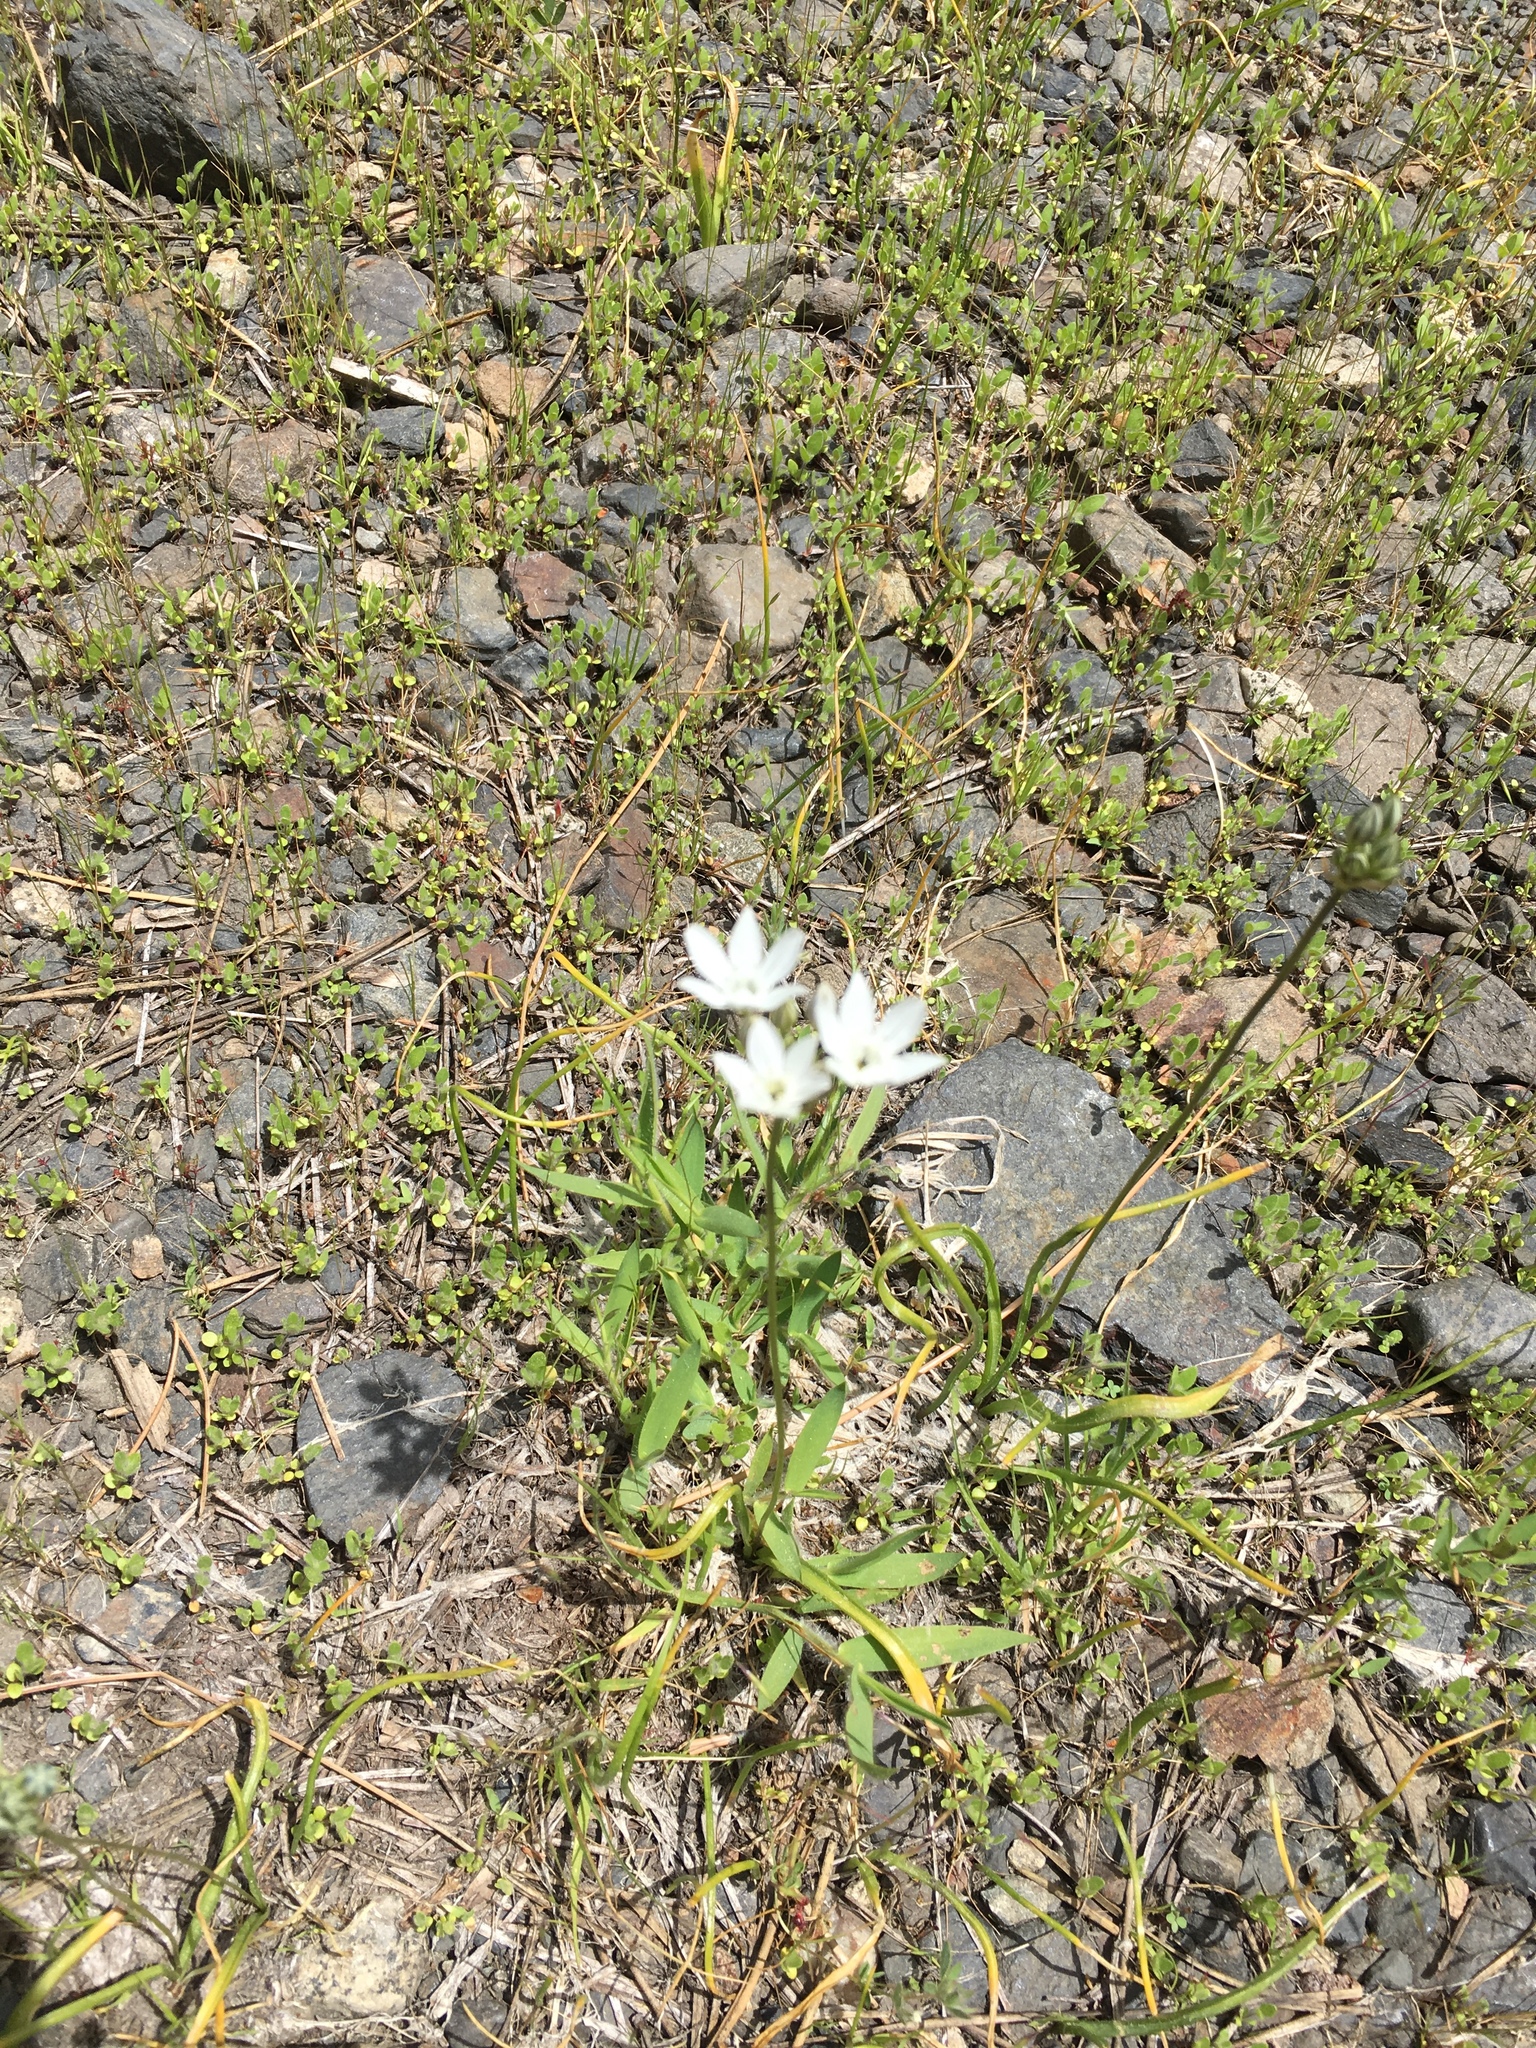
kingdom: Plantae
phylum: Tracheophyta
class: Liliopsida
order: Asparagales
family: Asparagaceae
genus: Triteleia
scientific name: Triteleia hyacinthina
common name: White brodiaea
